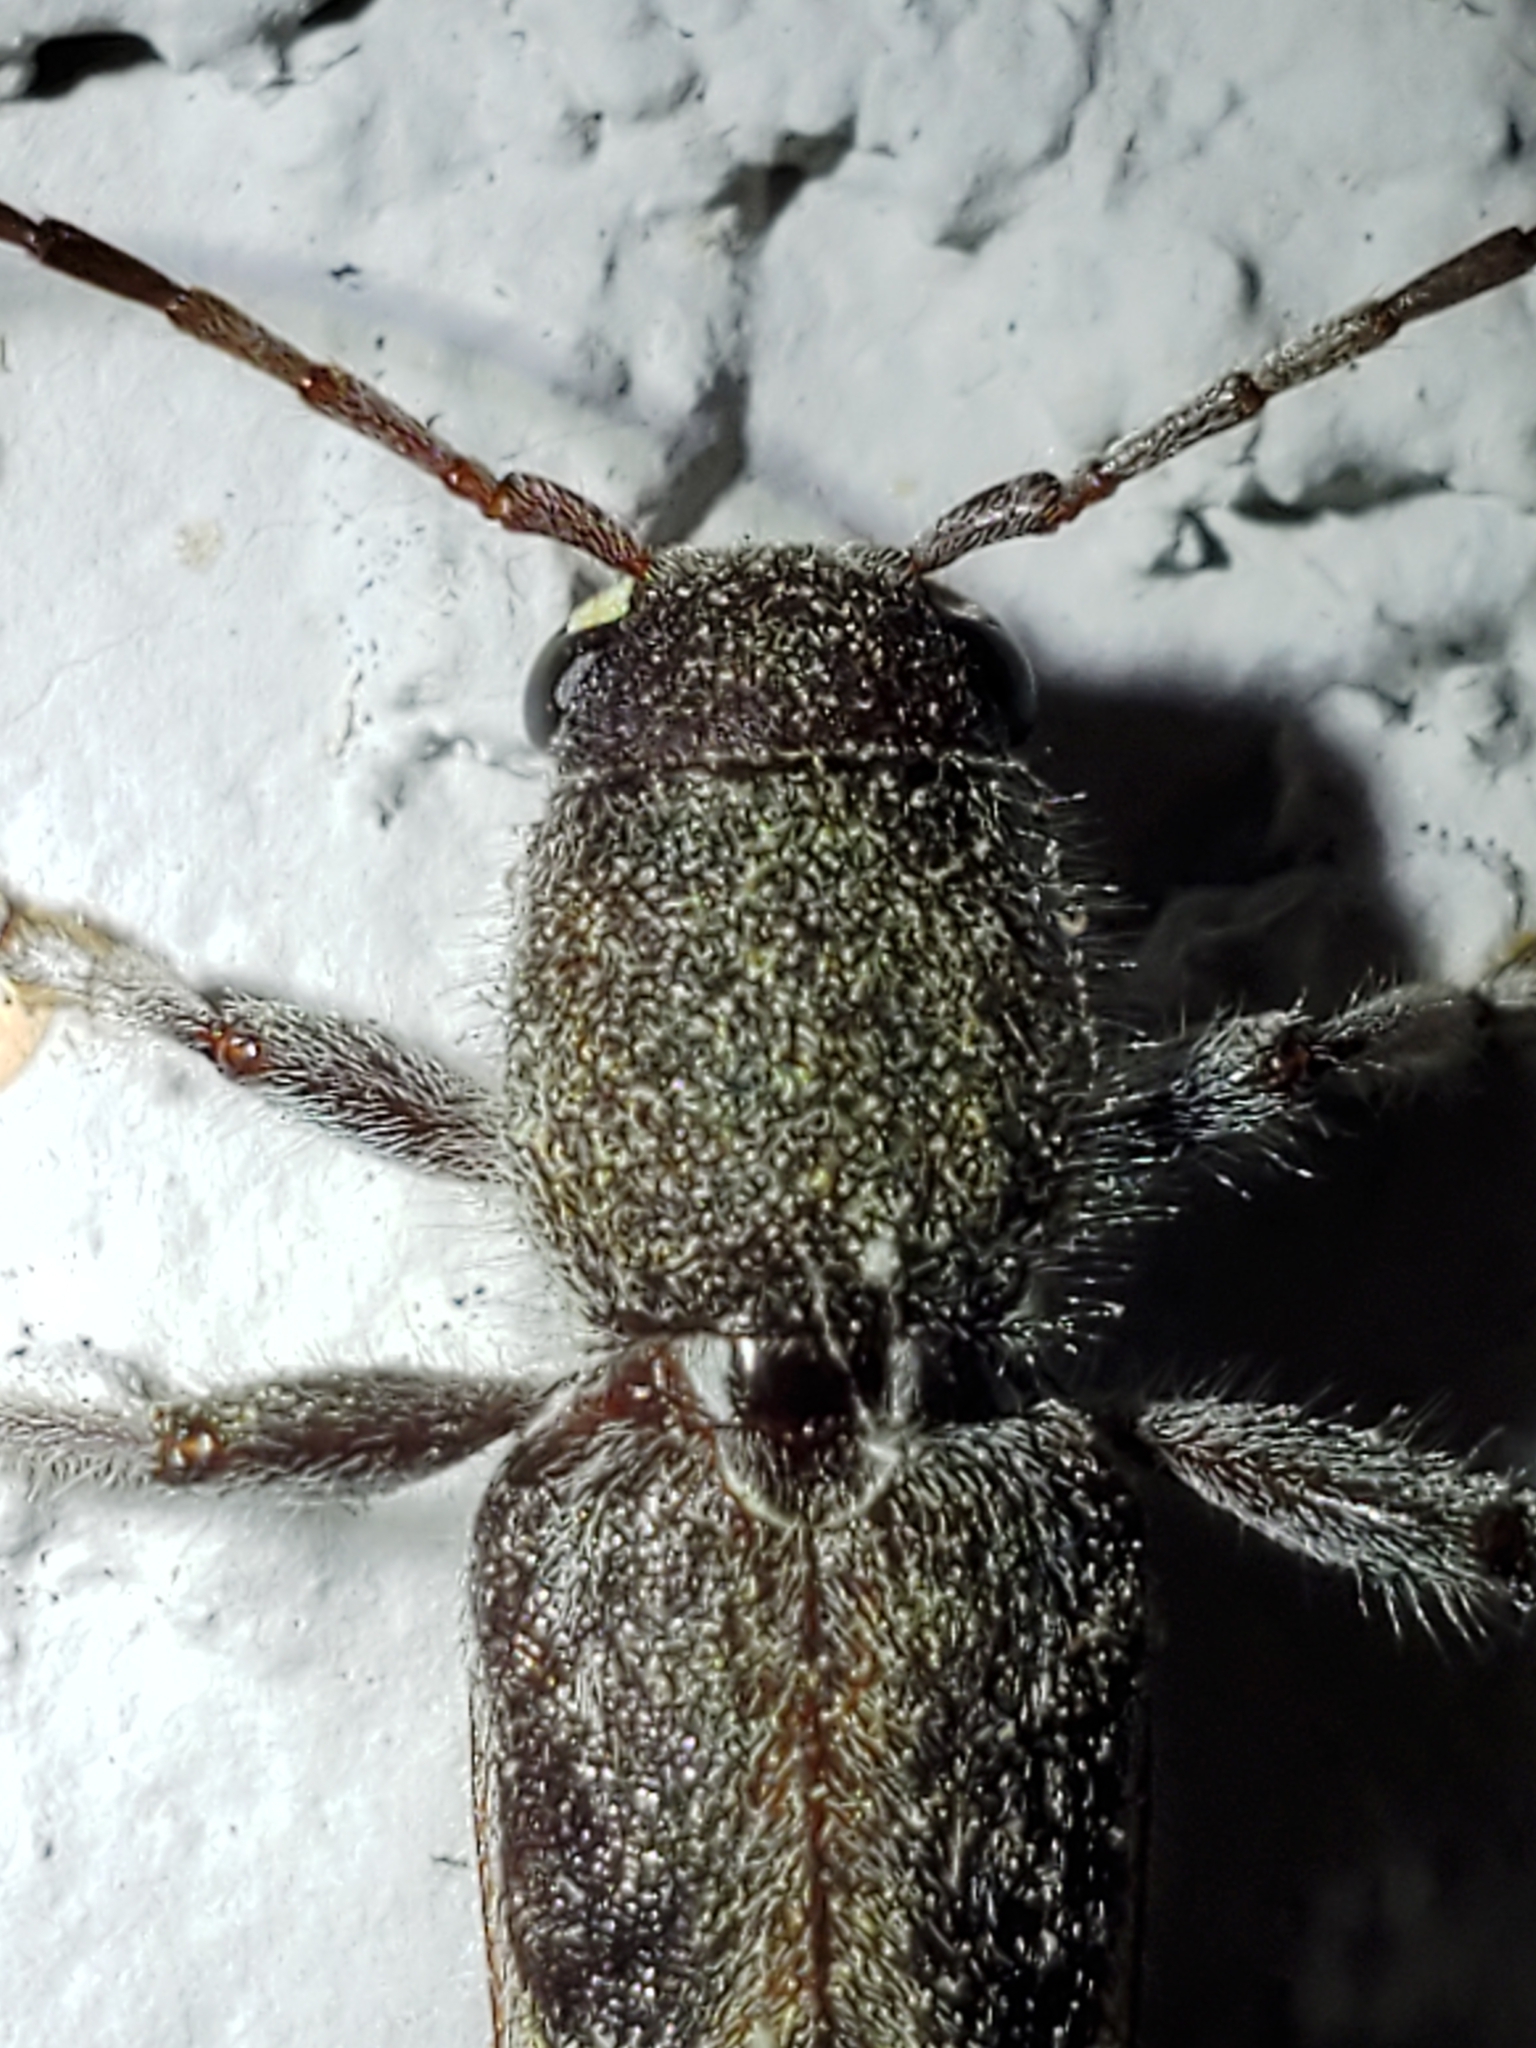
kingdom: Animalia
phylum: Arthropoda
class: Insecta
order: Coleoptera
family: Cerambycidae
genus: Xylotrechus
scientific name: Xylotrechus sagittatus
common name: Arrowhead borer
